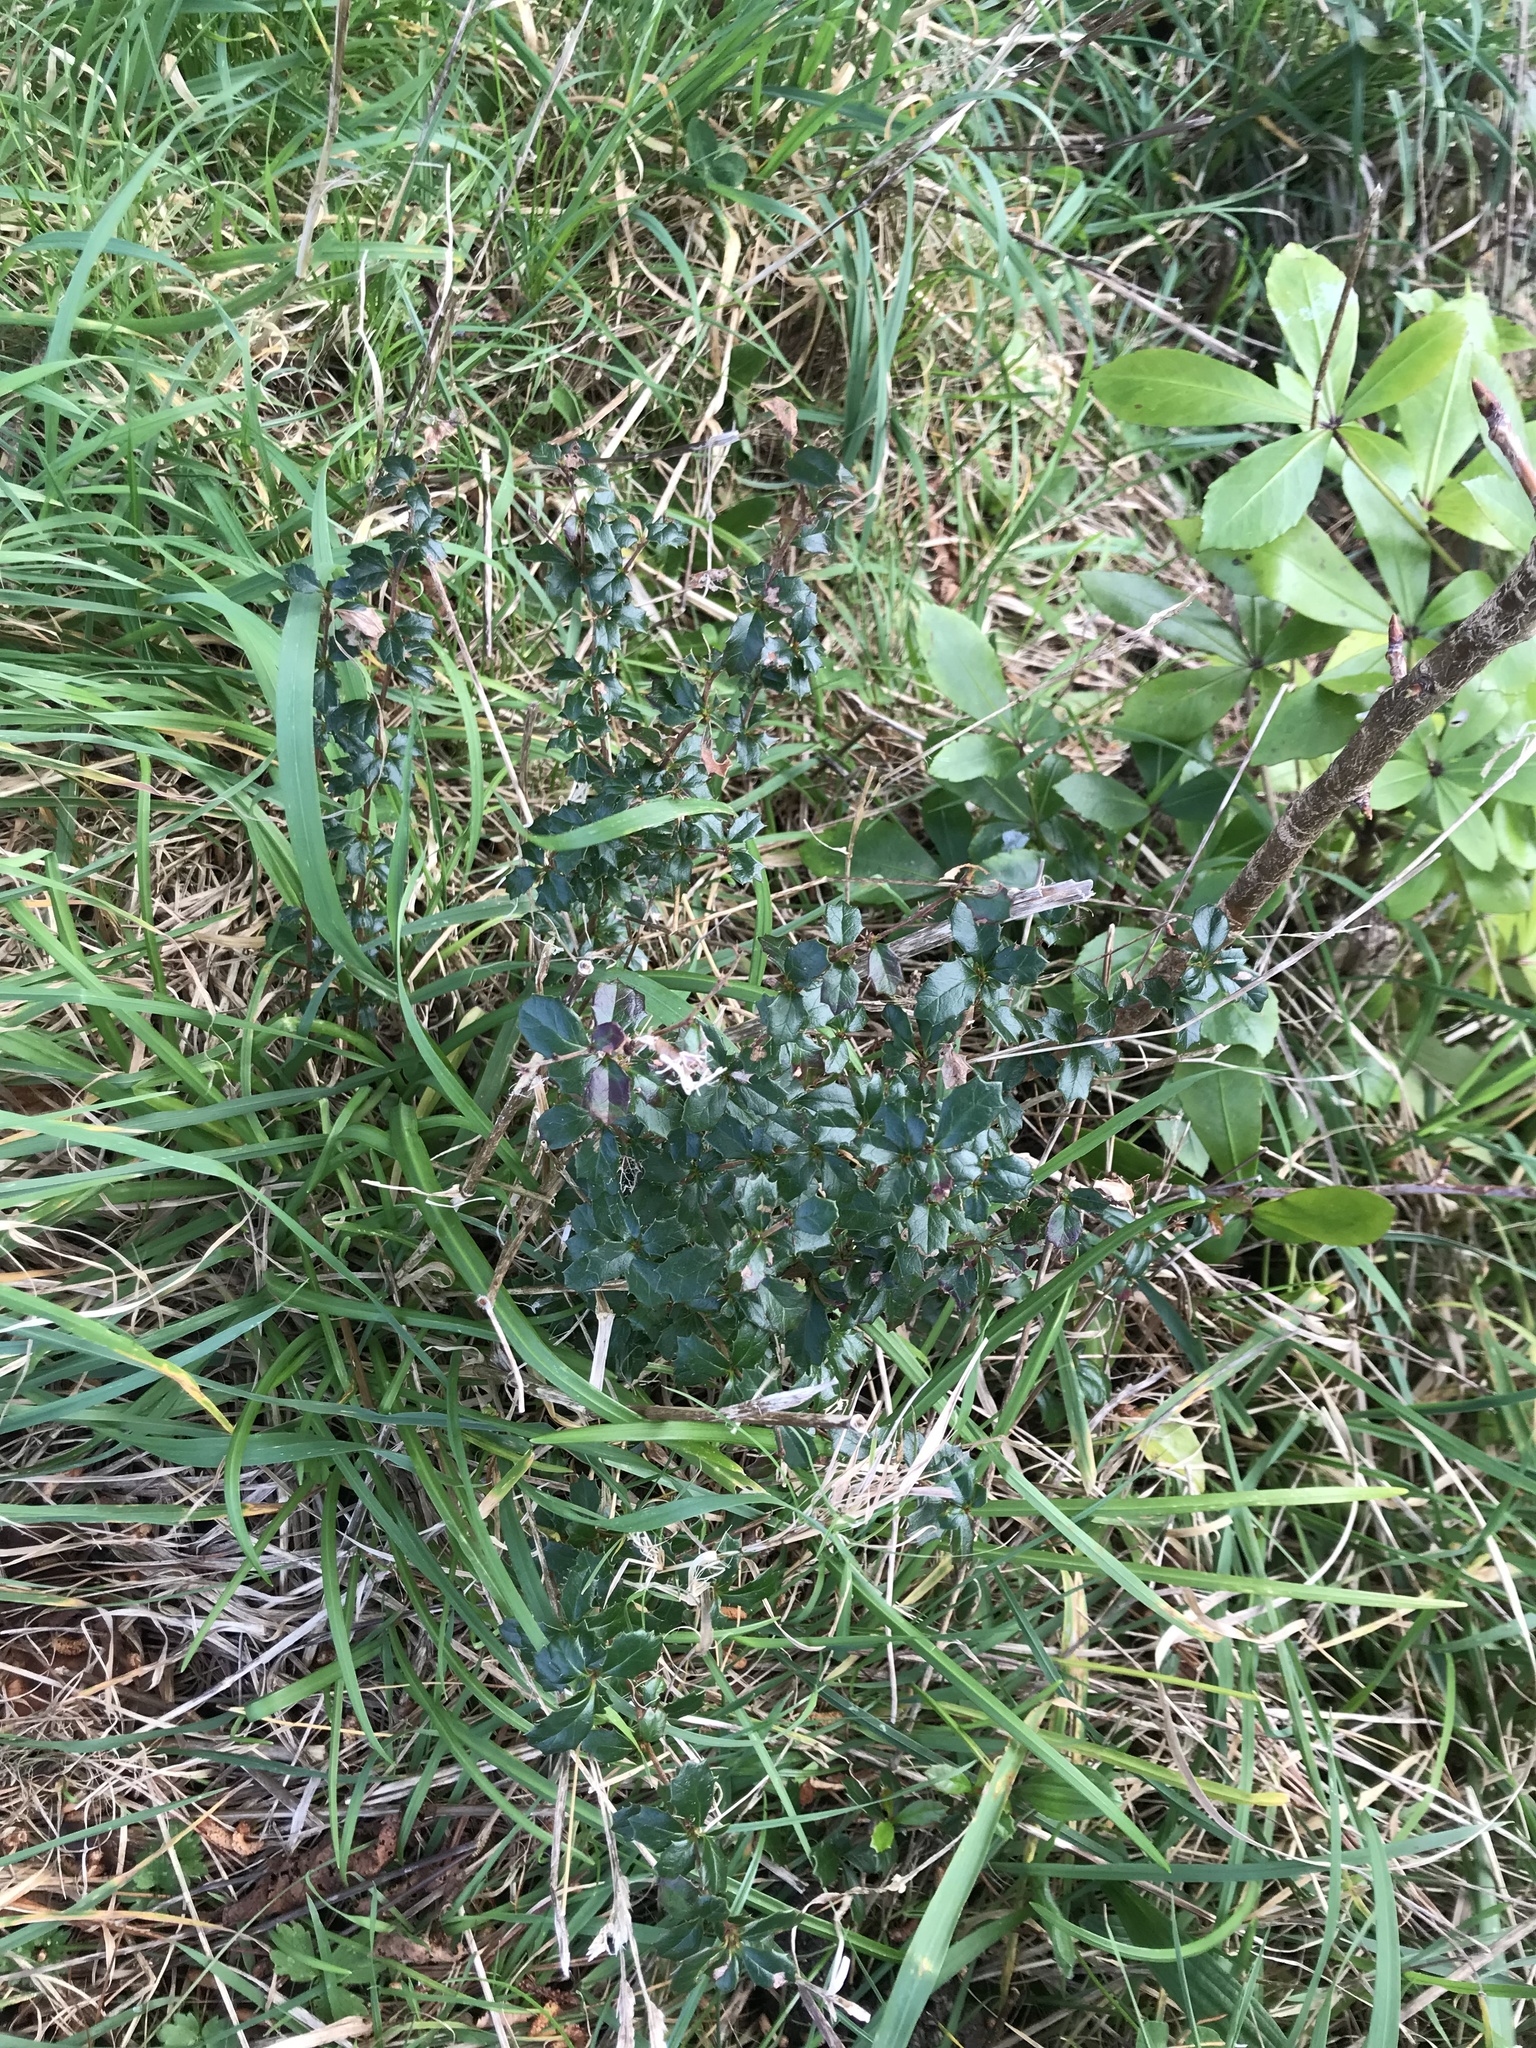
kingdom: Plantae
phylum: Tracheophyta
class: Magnoliopsida
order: Ranunculales
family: Berberidaceae
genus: Berberis
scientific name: Berberis darwinii
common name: Darwin's barberry
